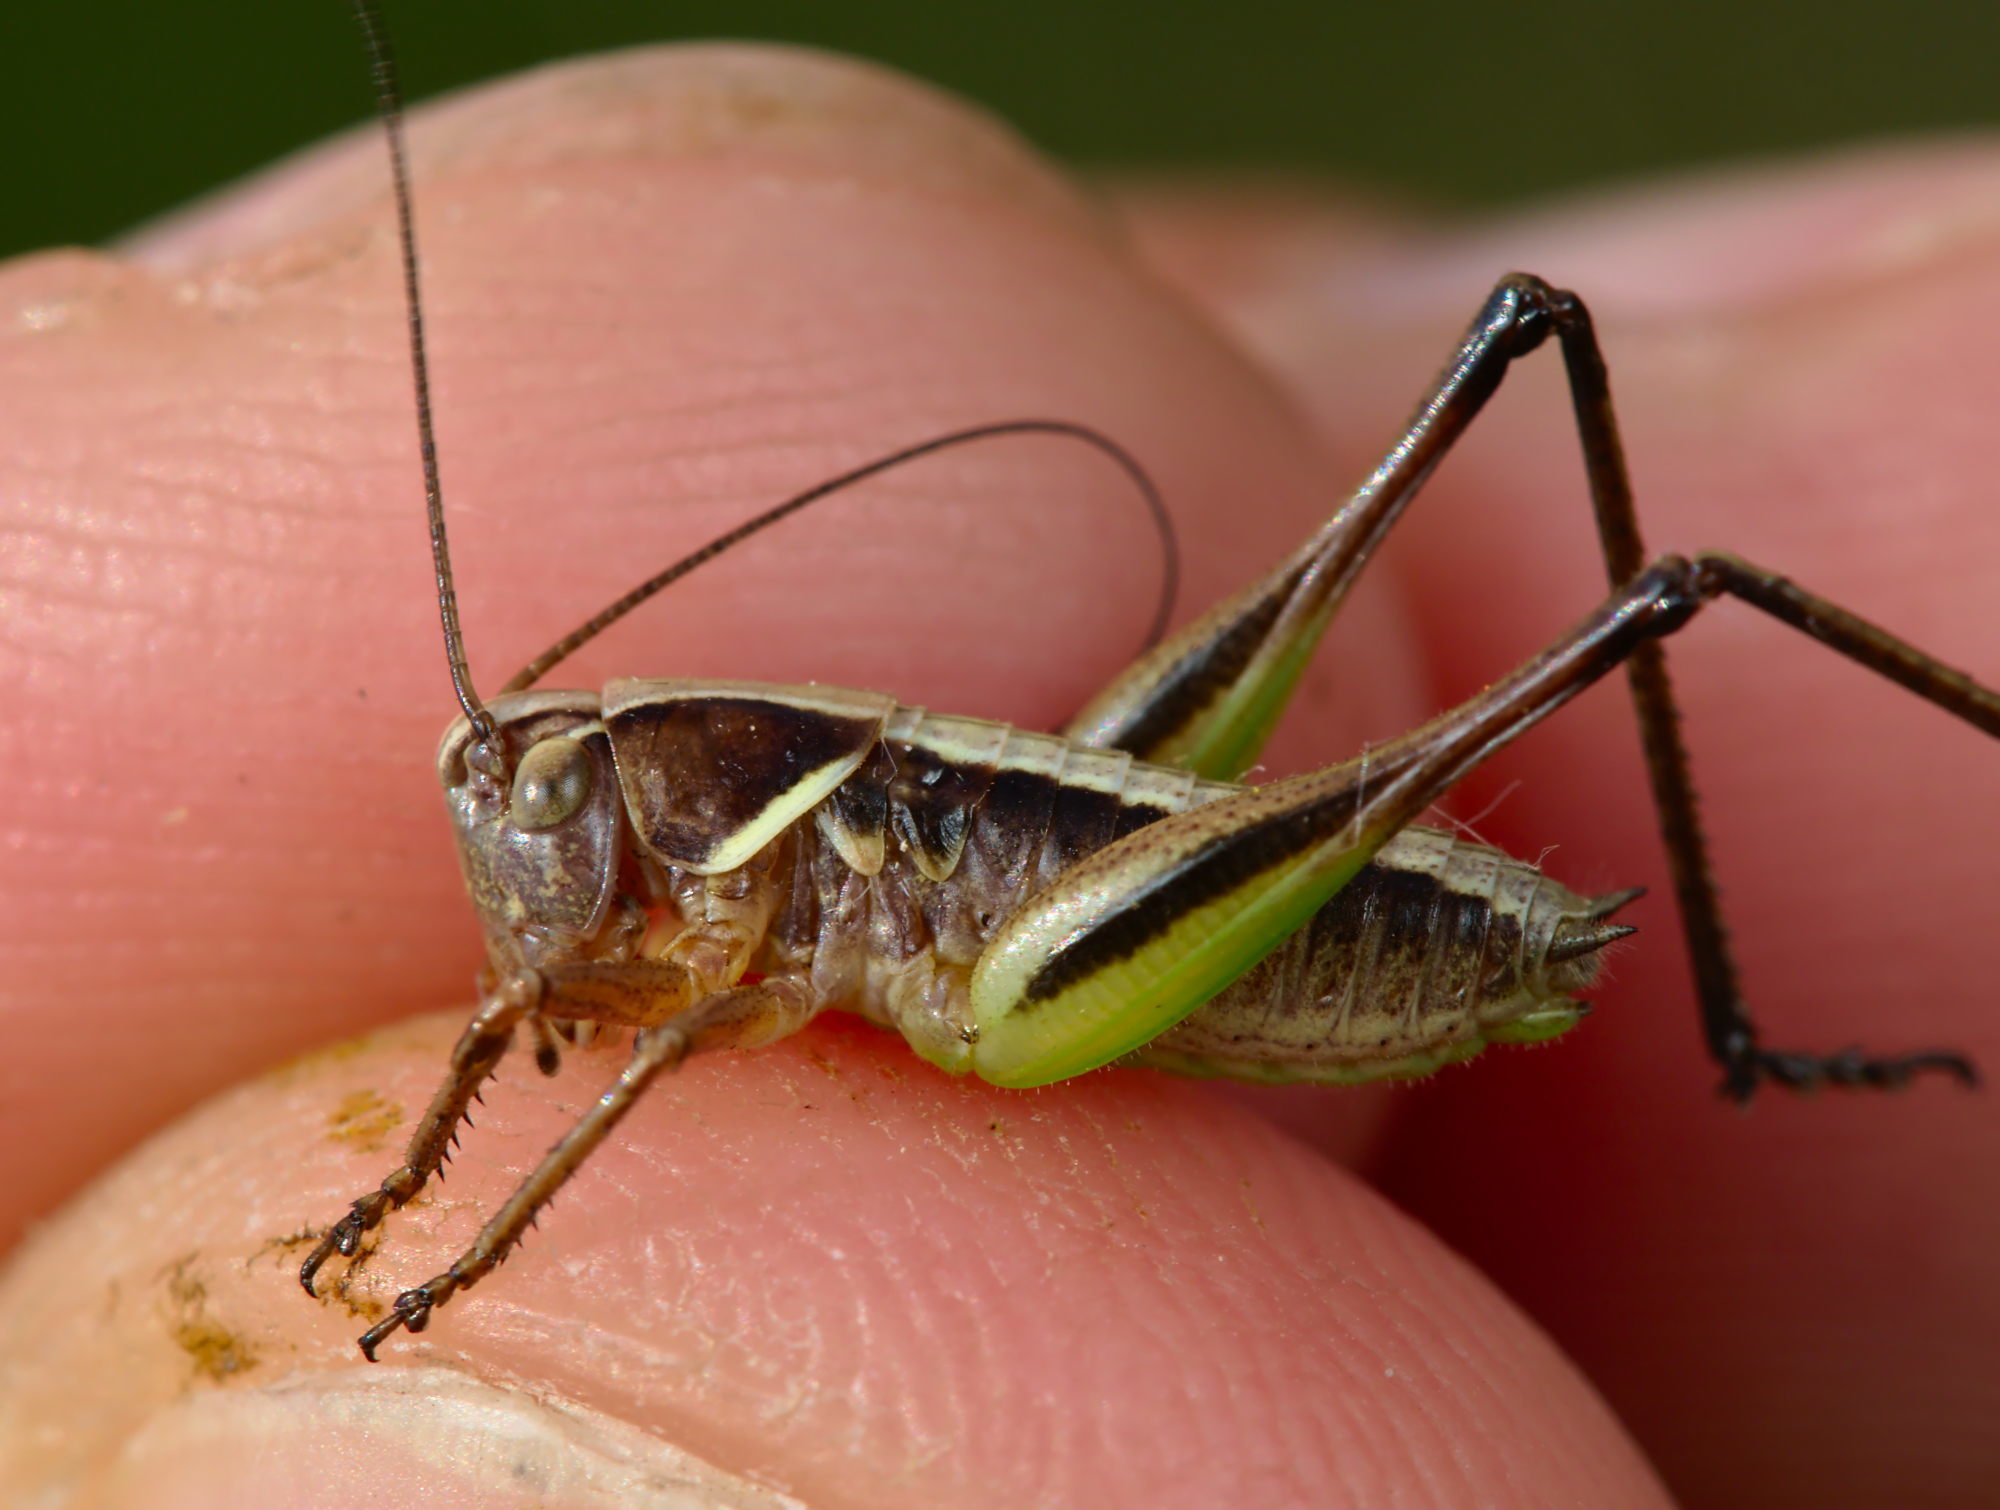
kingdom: Animalia
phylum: Arthropoda
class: Insecta
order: Orthoptera
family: Tettigoniidae
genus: Metrioptera
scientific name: Metrioptera brachyptera
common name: Bog bush-cricket
